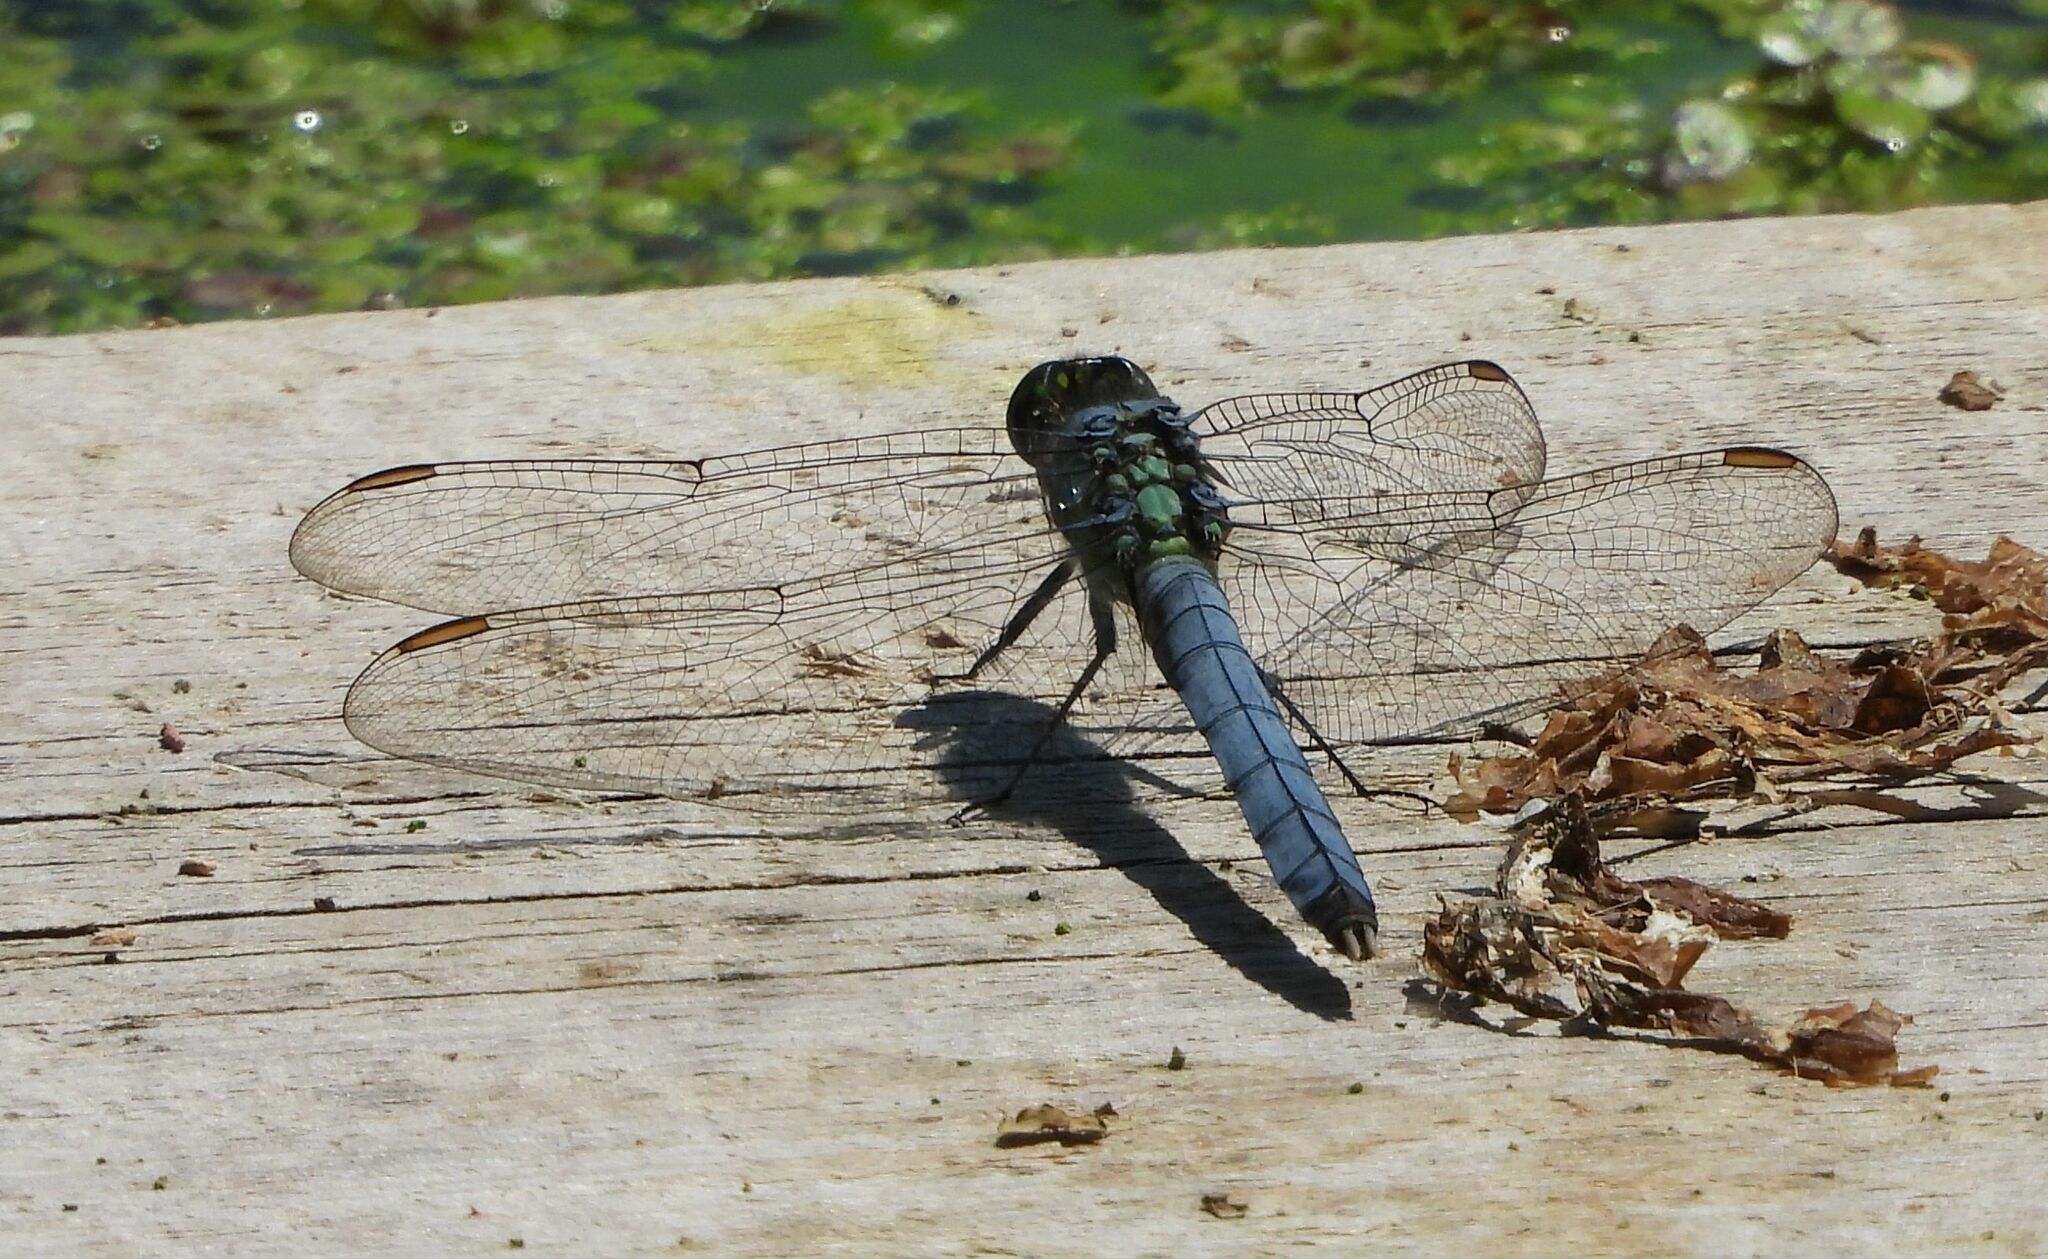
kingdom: Animalia
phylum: Arthropoda
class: Insecta
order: Odonata
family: Libellulidae
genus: Erythemis
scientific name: Erythemis simplicicollis
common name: Eastern pondhawk
